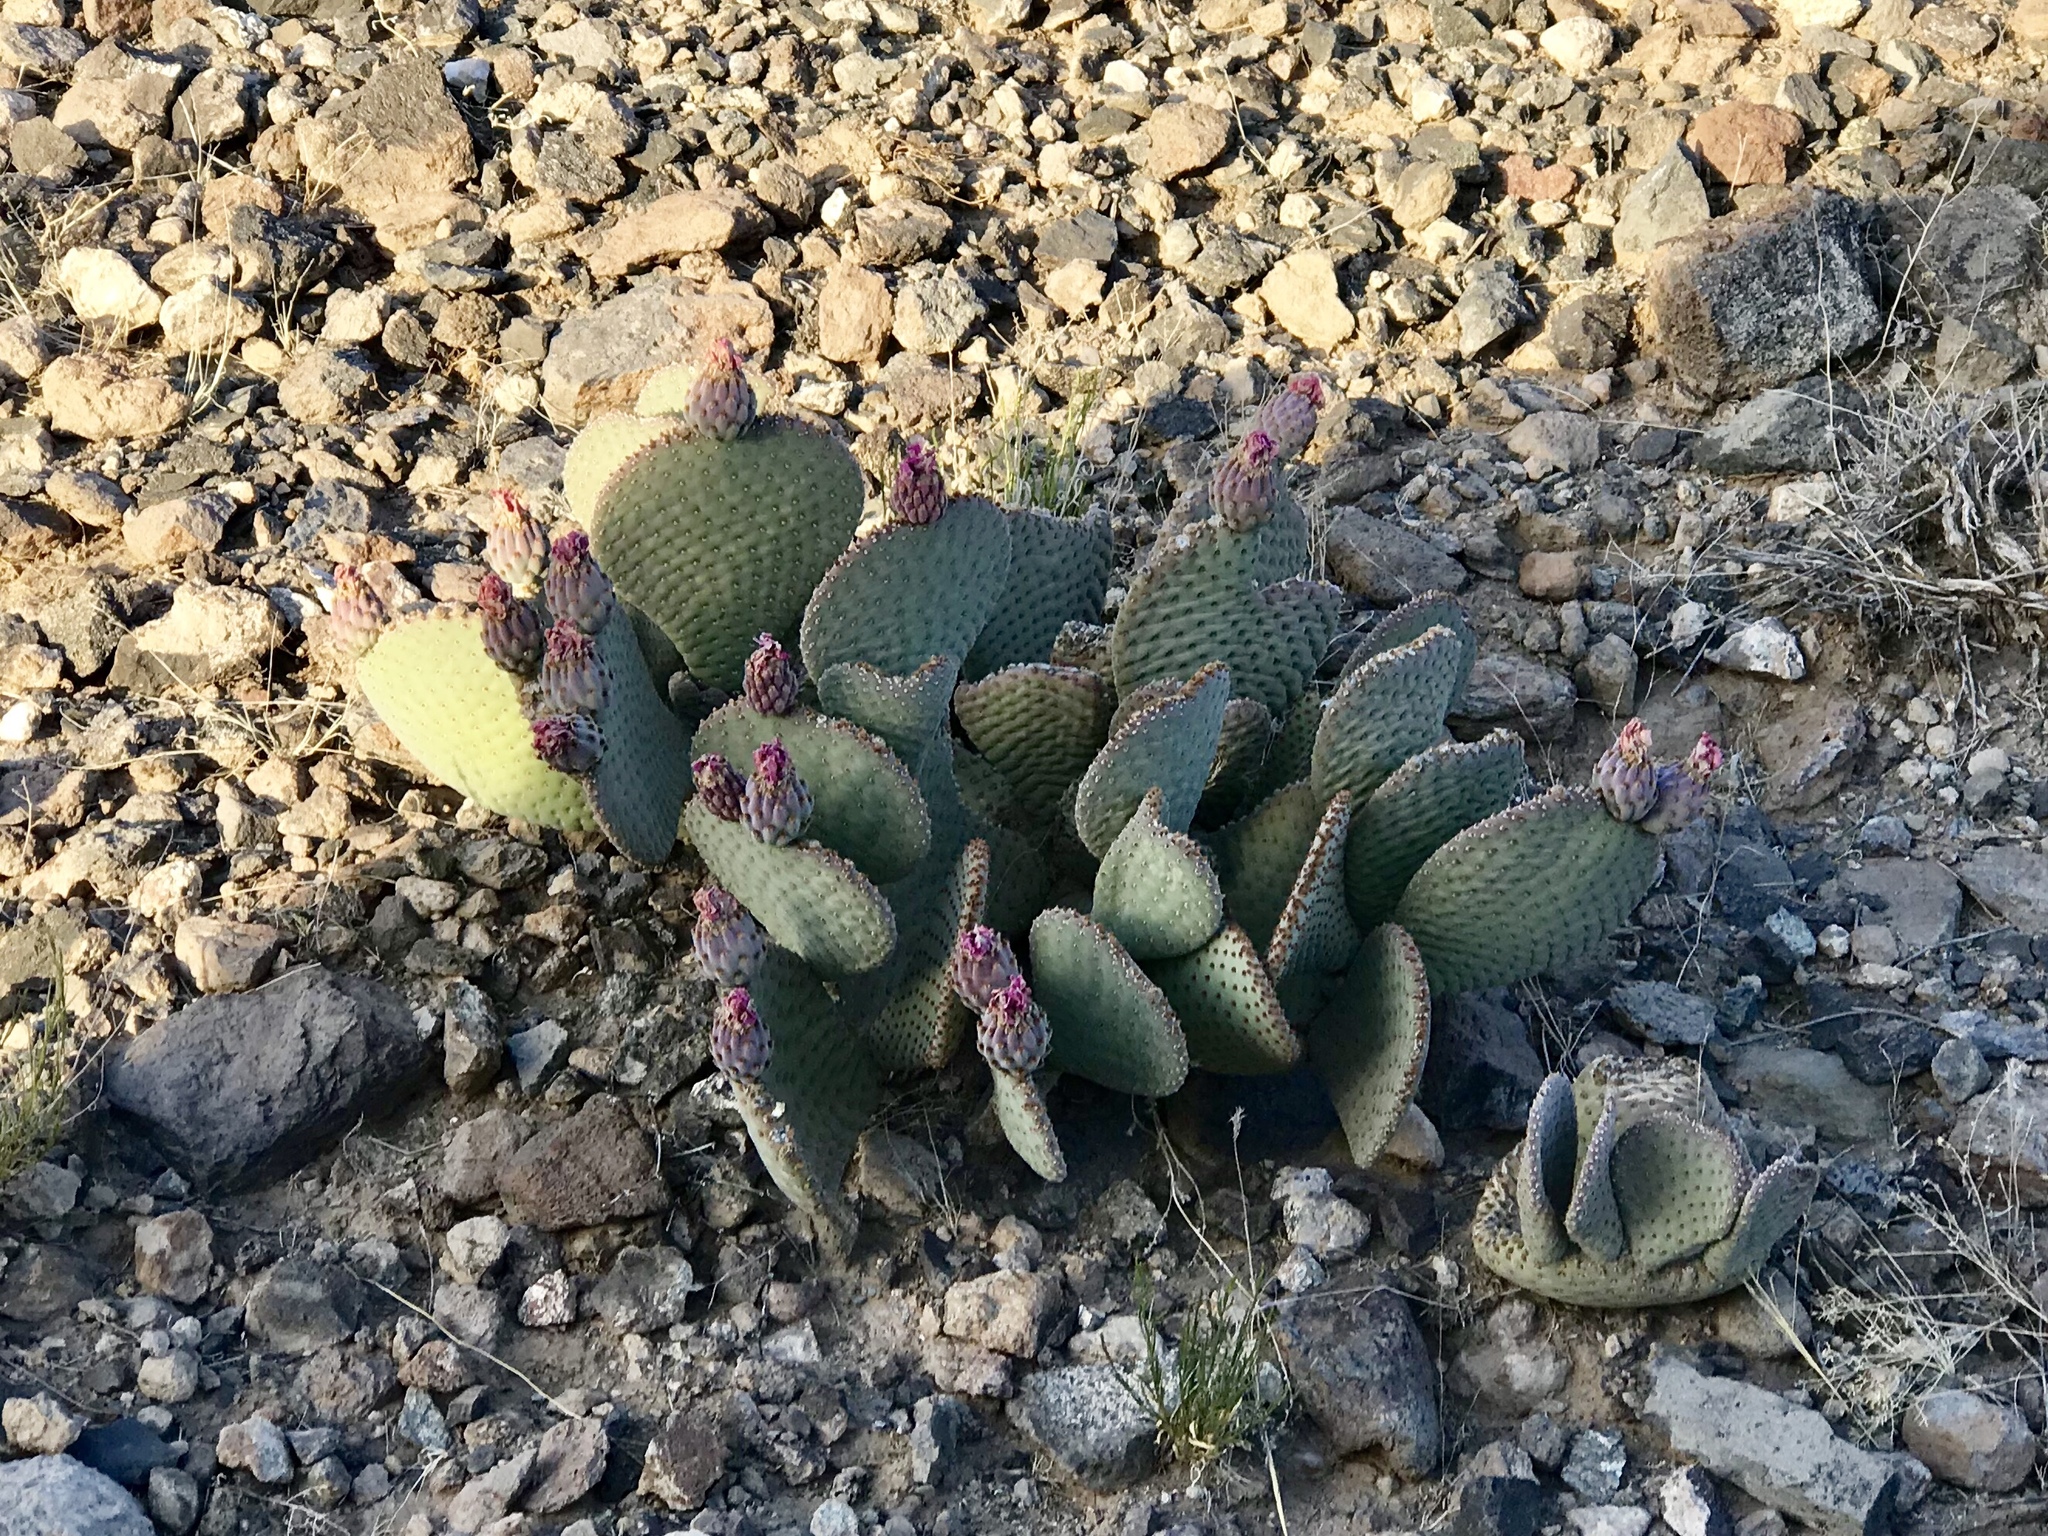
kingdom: Plantae
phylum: Tracheophyta
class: Magnoliopsida
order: Caryophyllales
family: Cactaceae
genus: Opuntia
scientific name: Opuntia basilaris
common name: Beavertail prickly-pear
